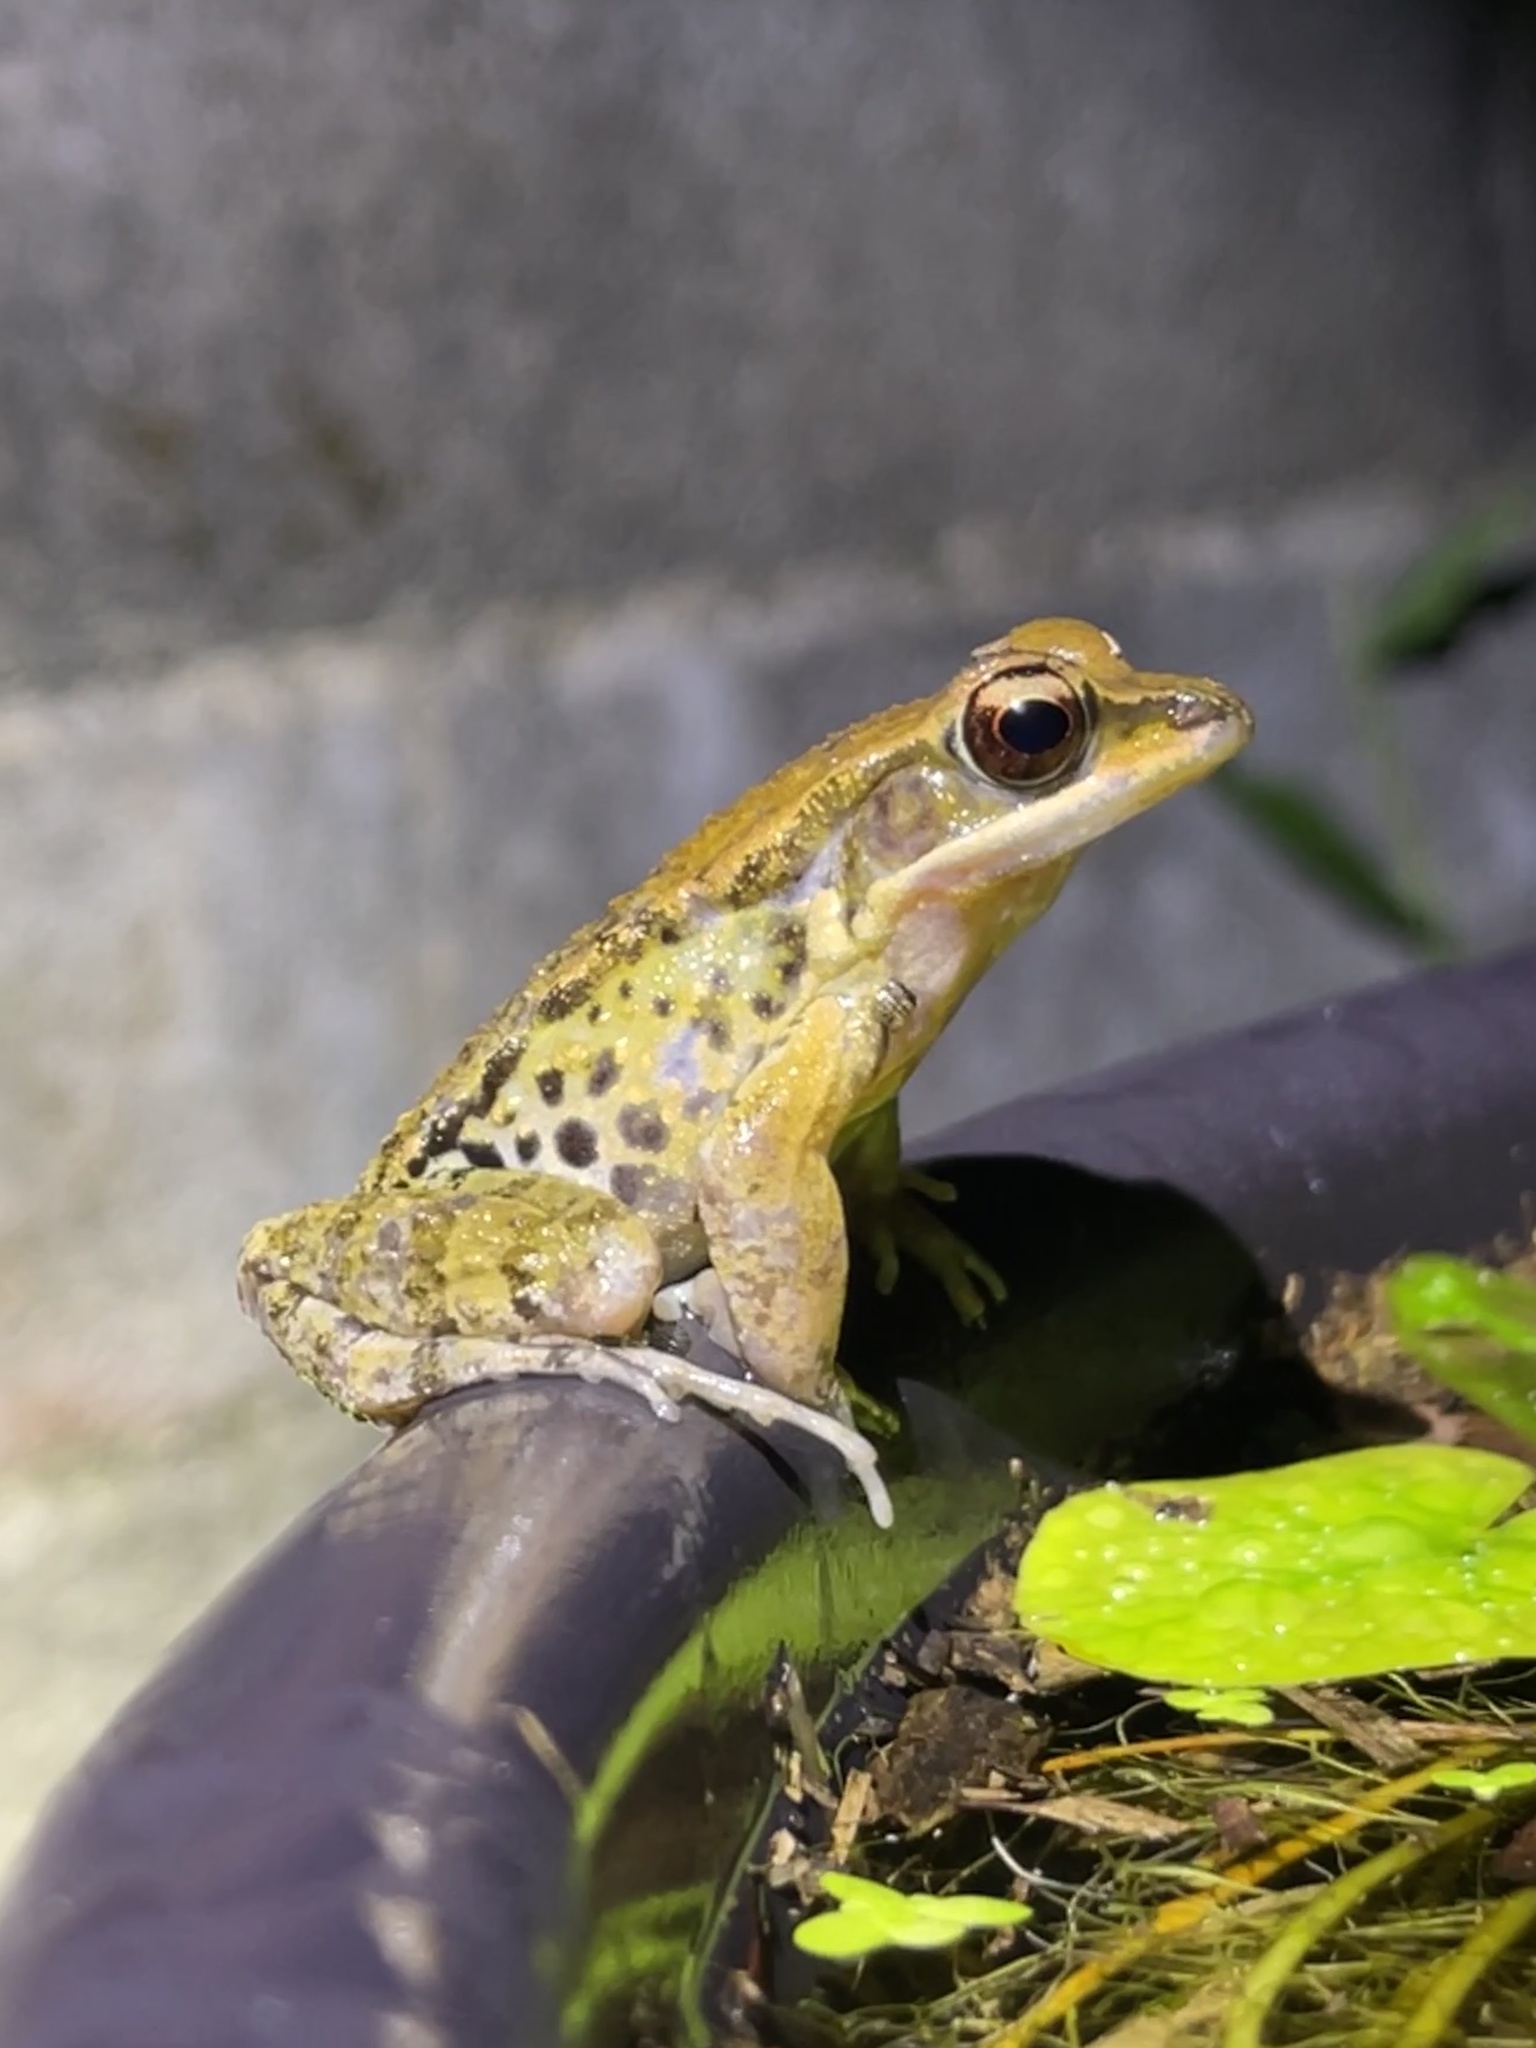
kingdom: Animalia
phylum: Chordata
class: Amphibia
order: Anura
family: Ranidae
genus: Hylarana
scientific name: Hylarana latouchii
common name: Broad-folded frog
